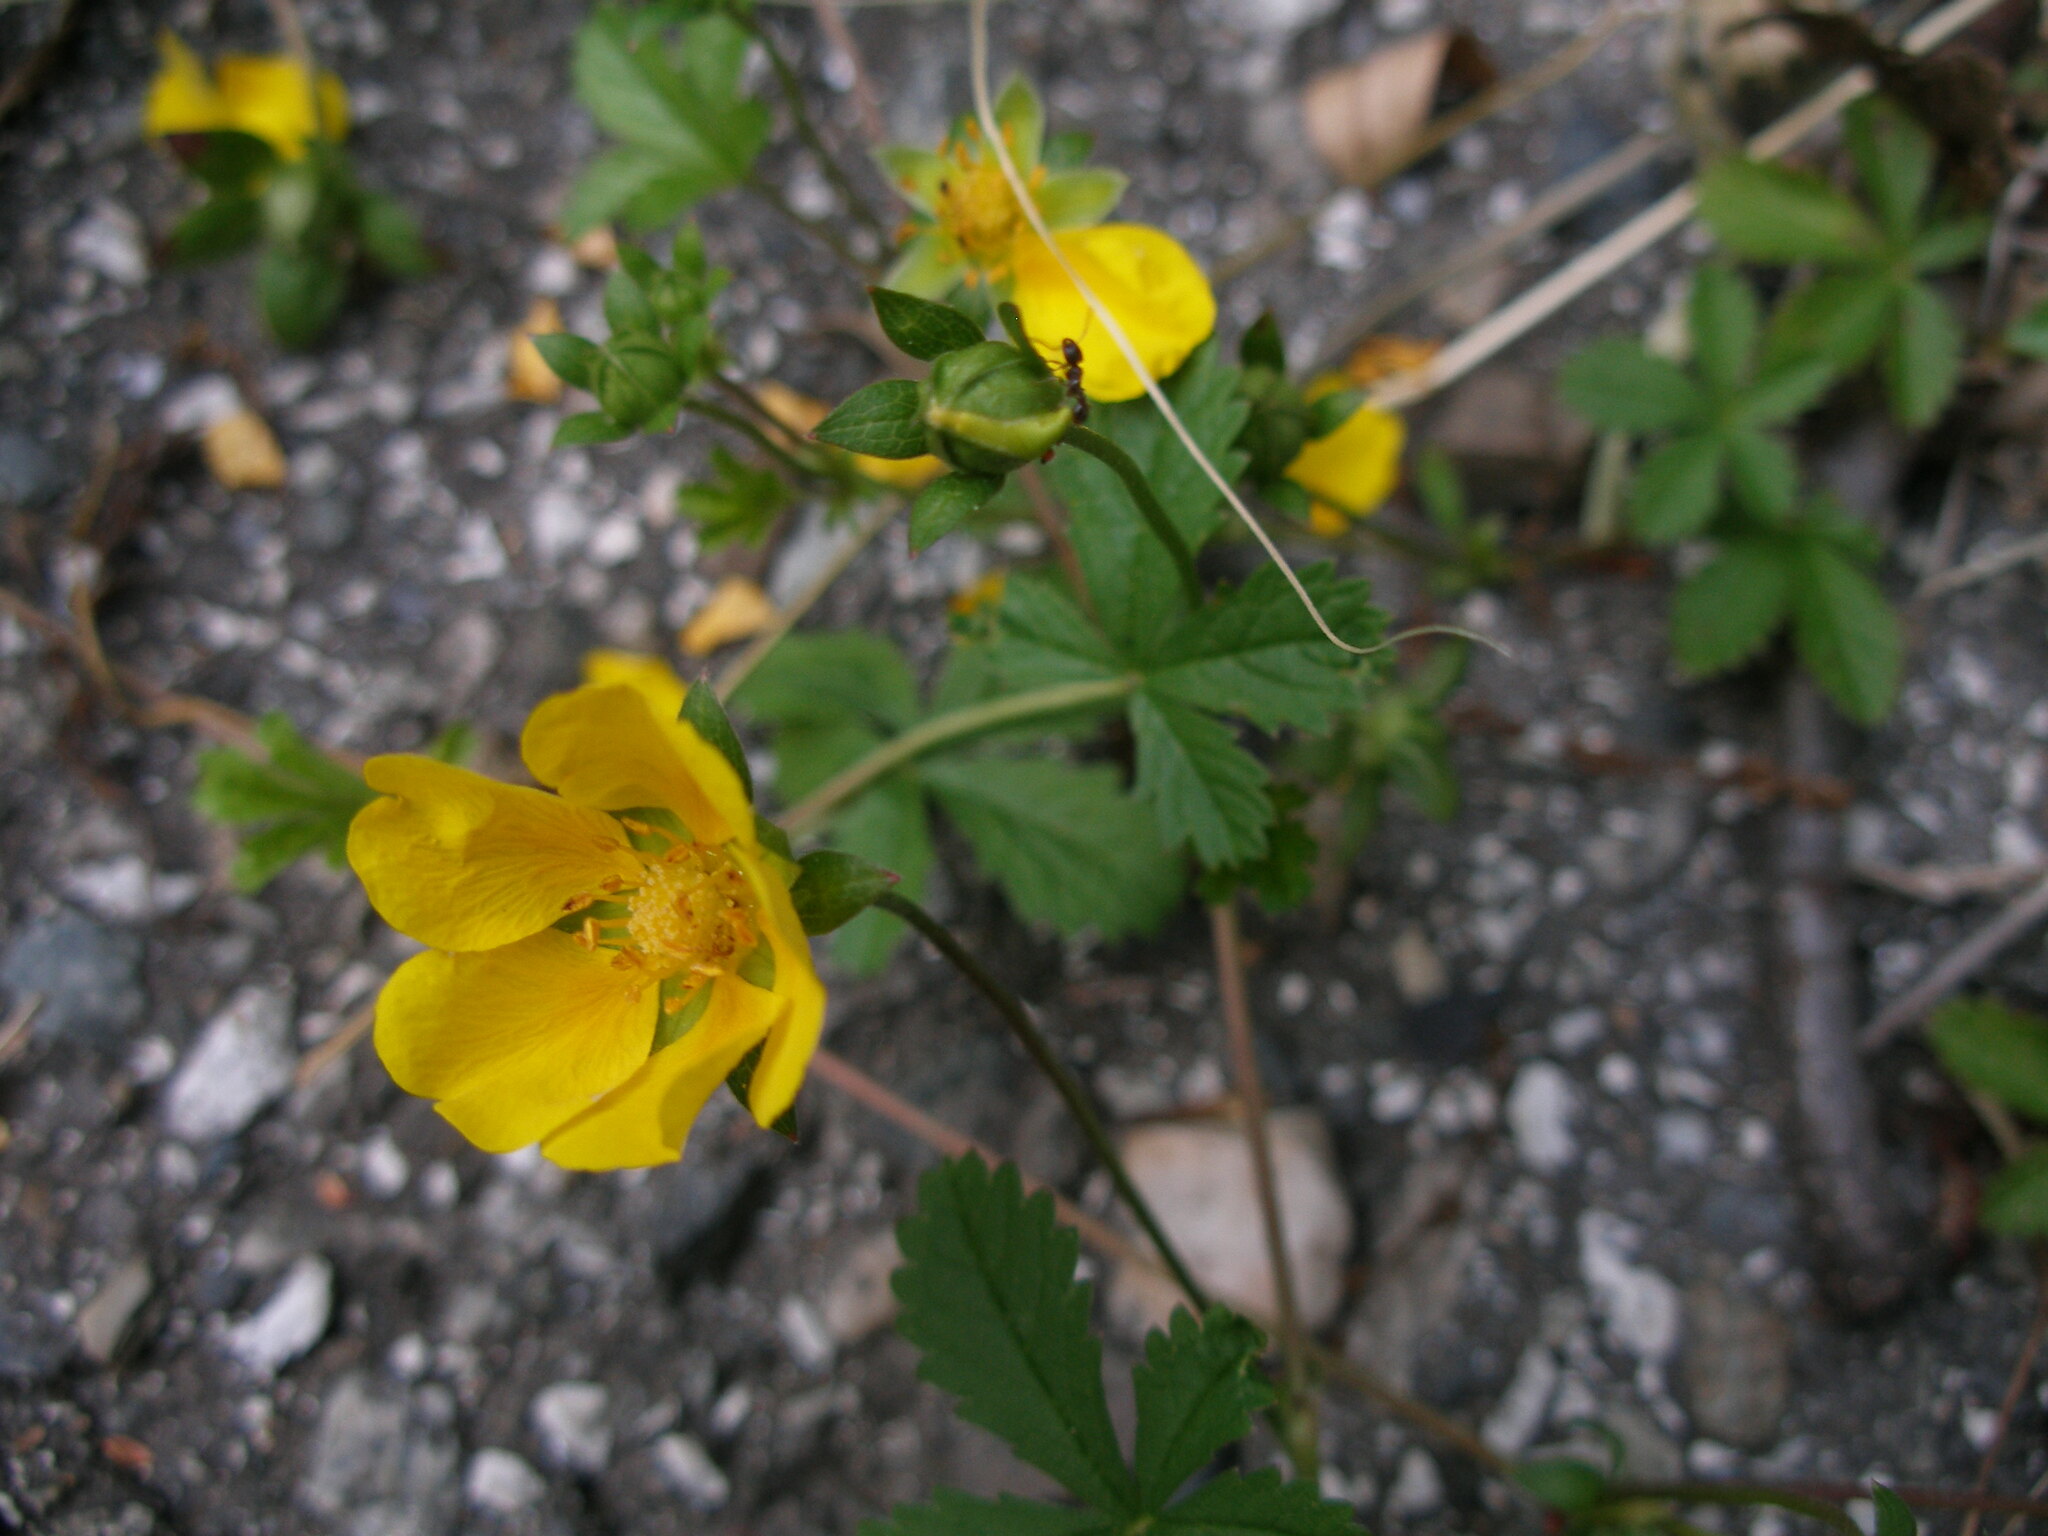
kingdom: Plantae
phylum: Tracheophyta
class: Magnoliopsida
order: Rosales
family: Rosaceae
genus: Potentilla
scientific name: Potentilla reptans
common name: Creeping cinquefoil
